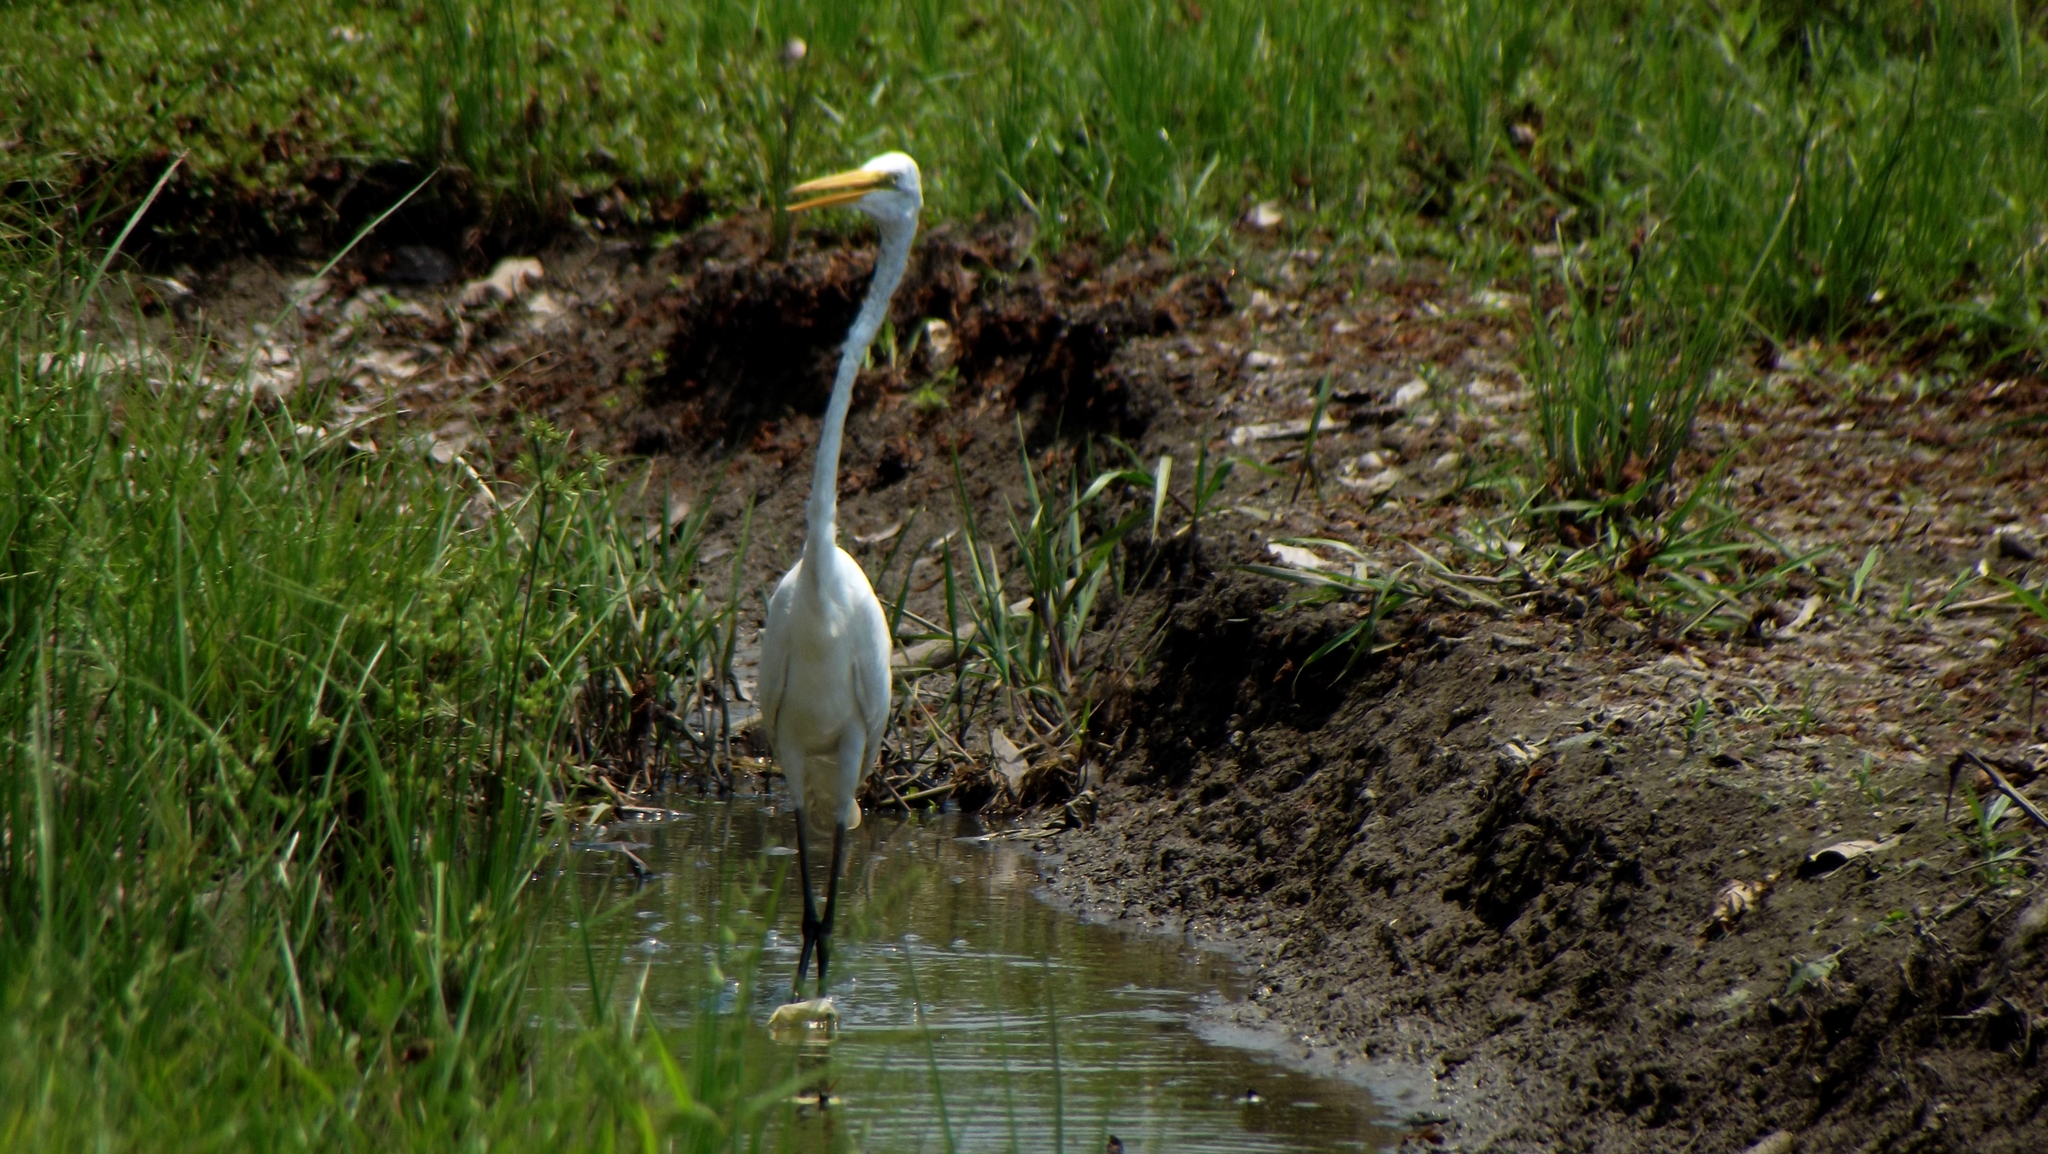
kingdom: Animalia
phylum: Chordata
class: Aves
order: Pelecaniformes
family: Ardeidae
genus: Ardea
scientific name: Ardea alba
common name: Great egret
